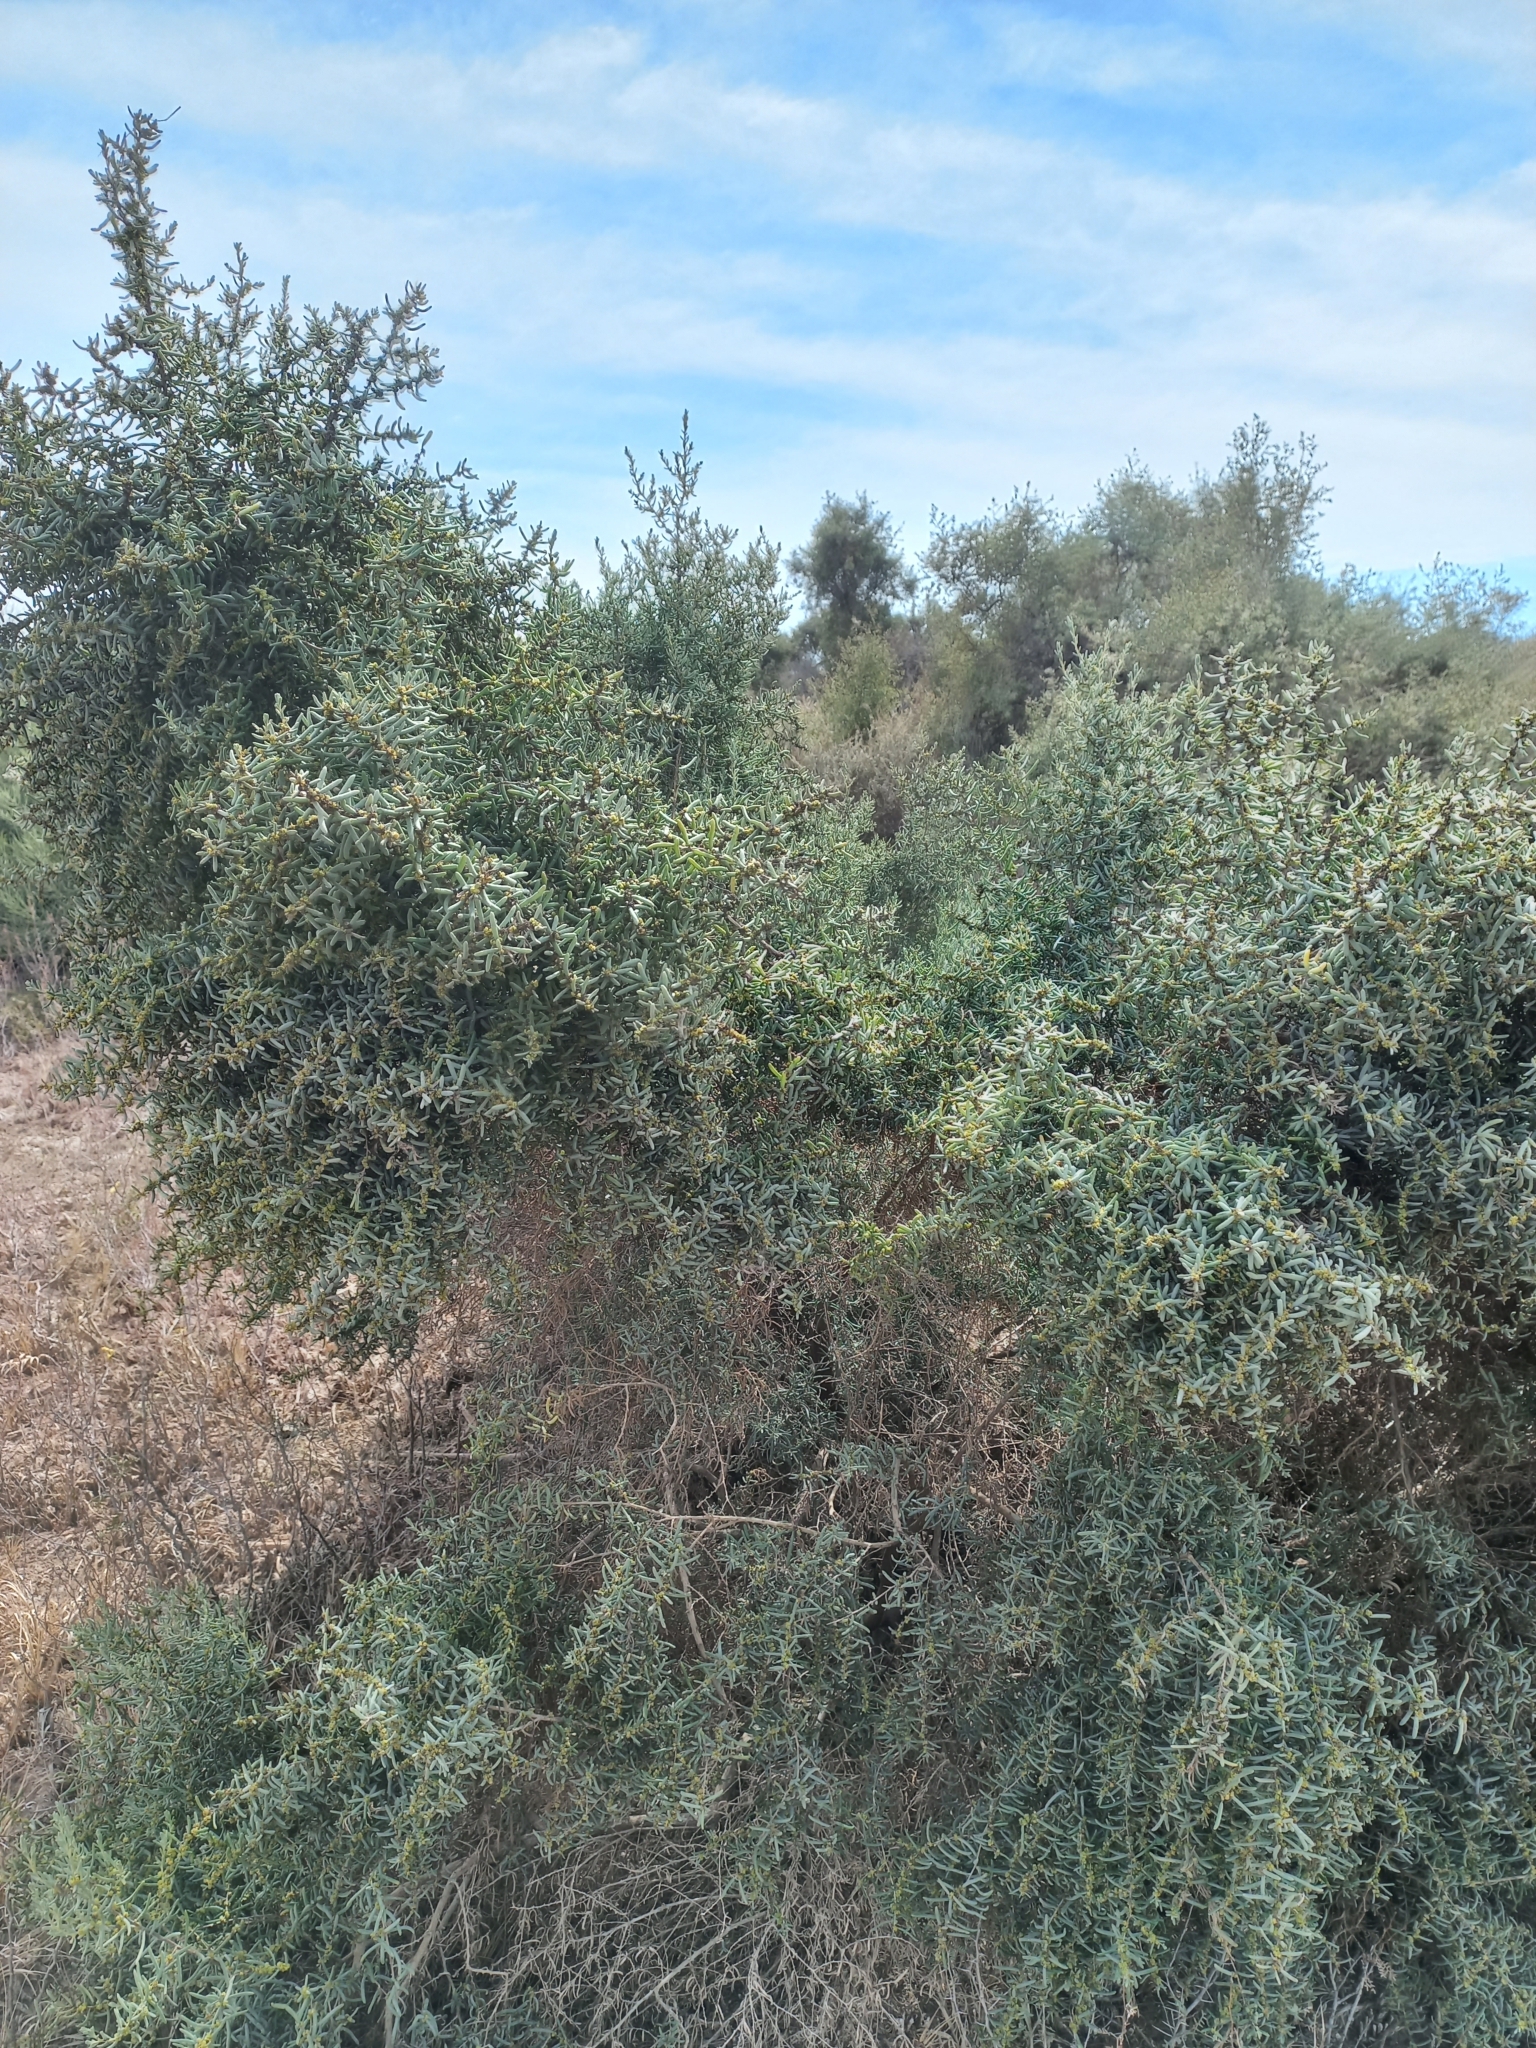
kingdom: Plantae
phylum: Tracheophyta
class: Magnoliopsida
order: Caryophyllales
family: Amaranthaceae
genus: Suaeda
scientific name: Suaeda divaricata
